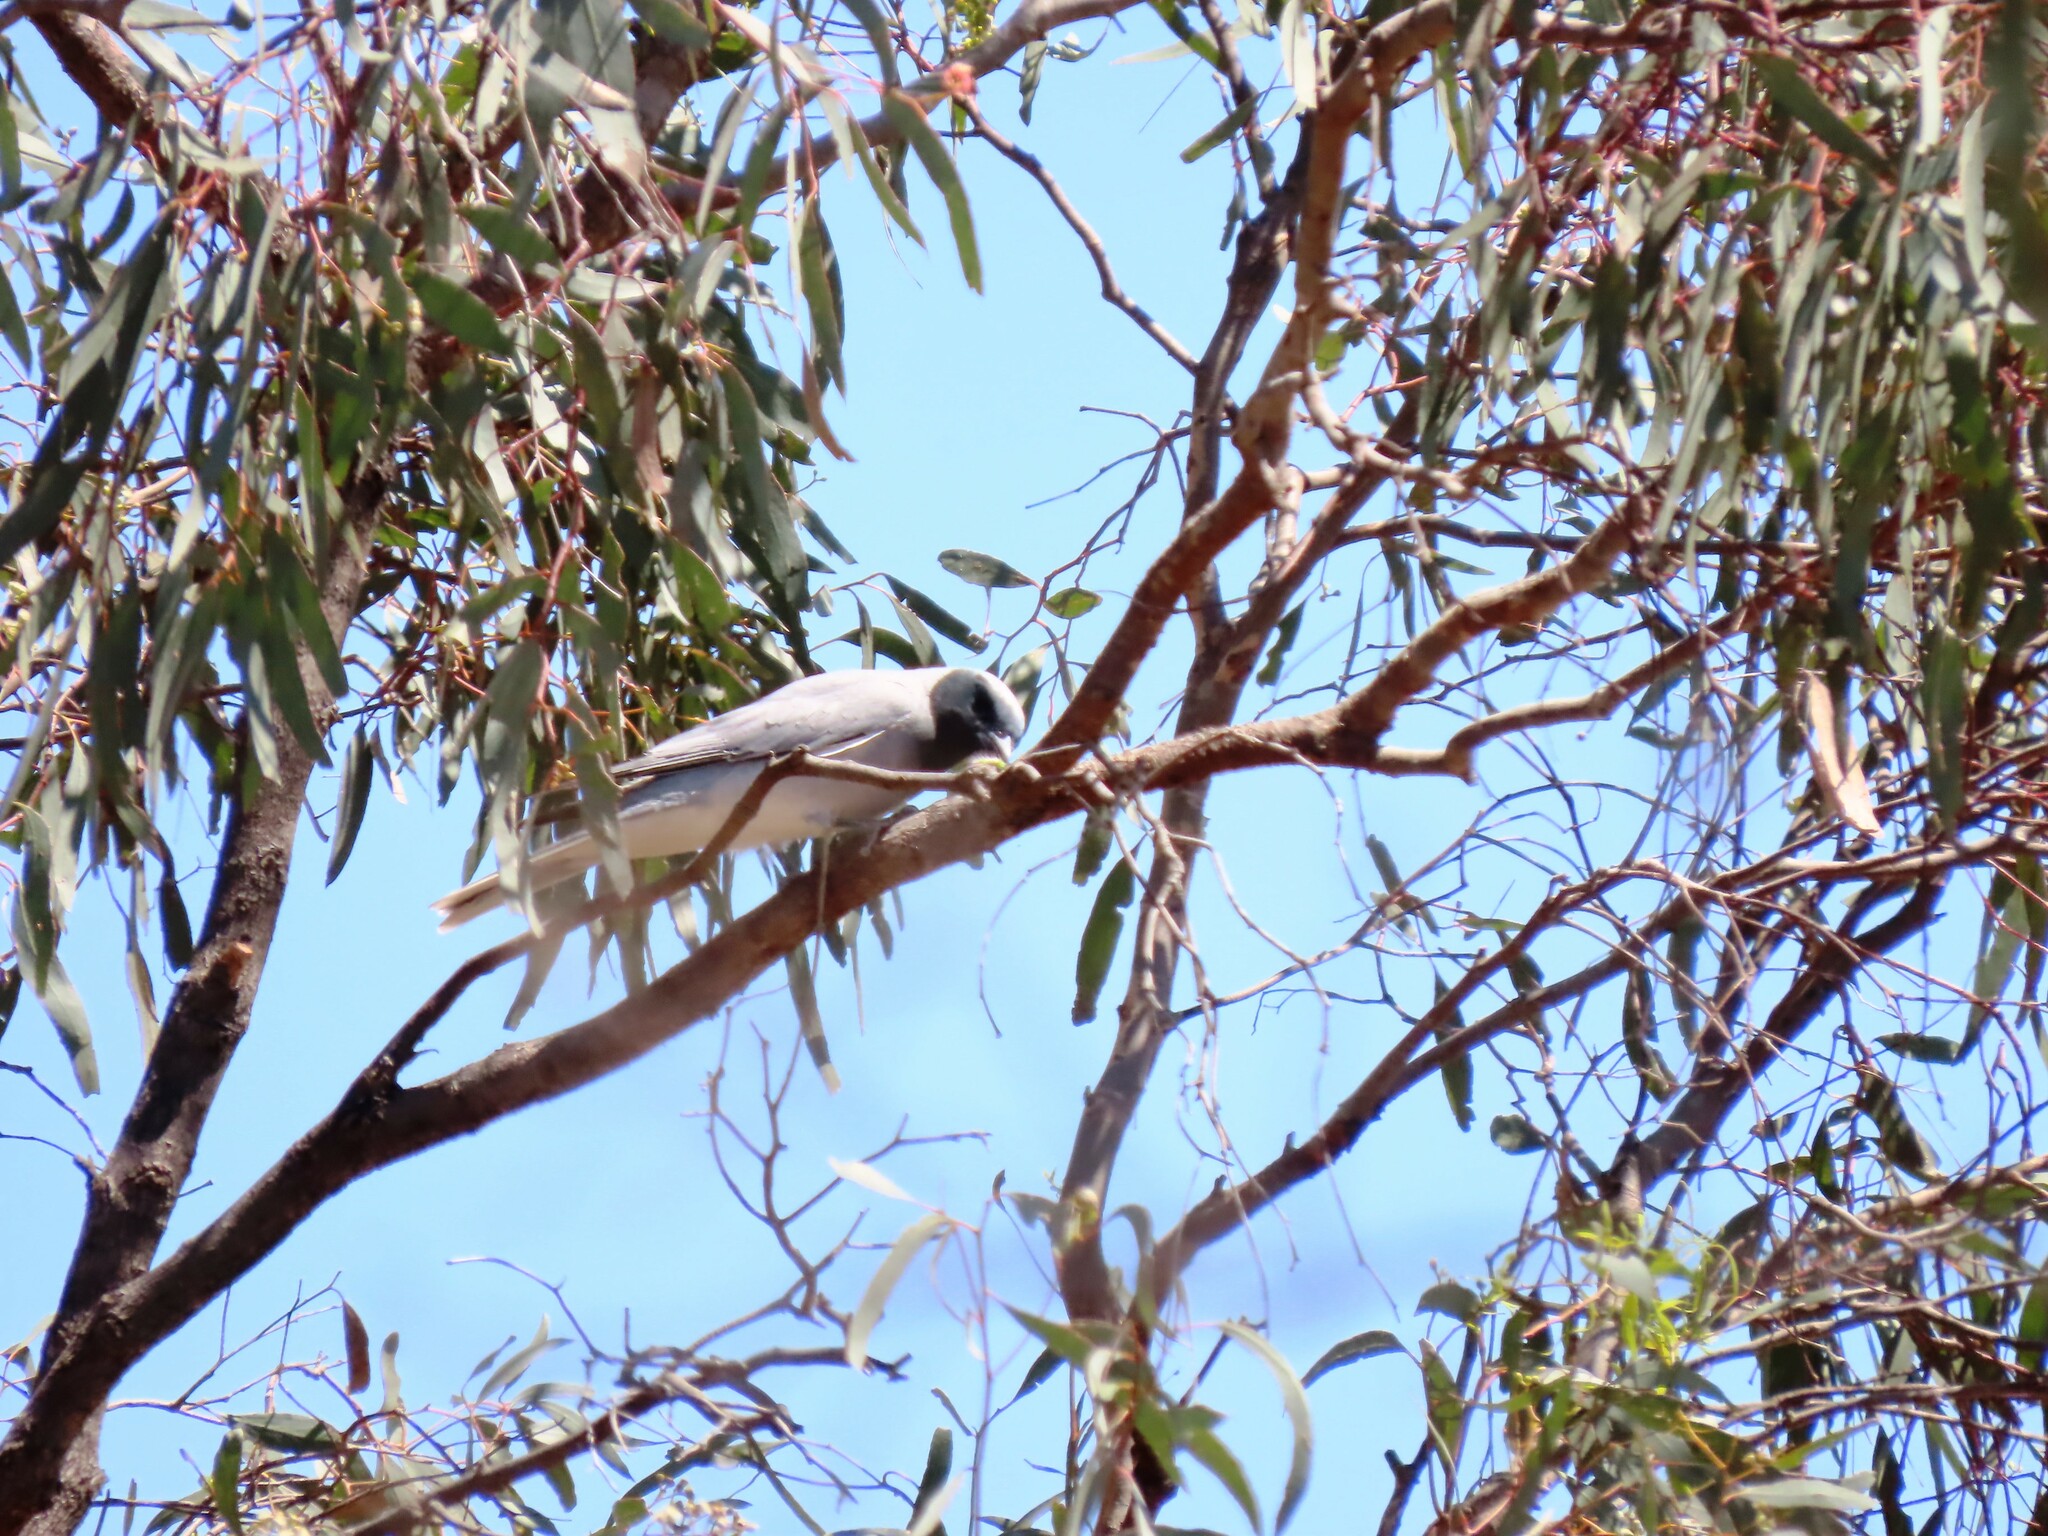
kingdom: Animalia
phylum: Chordata
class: Aves
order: Passeriformes
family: Campephagidae
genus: Coracina
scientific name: Coracina novaehollandiae
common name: Black-faced cuckooshrike
